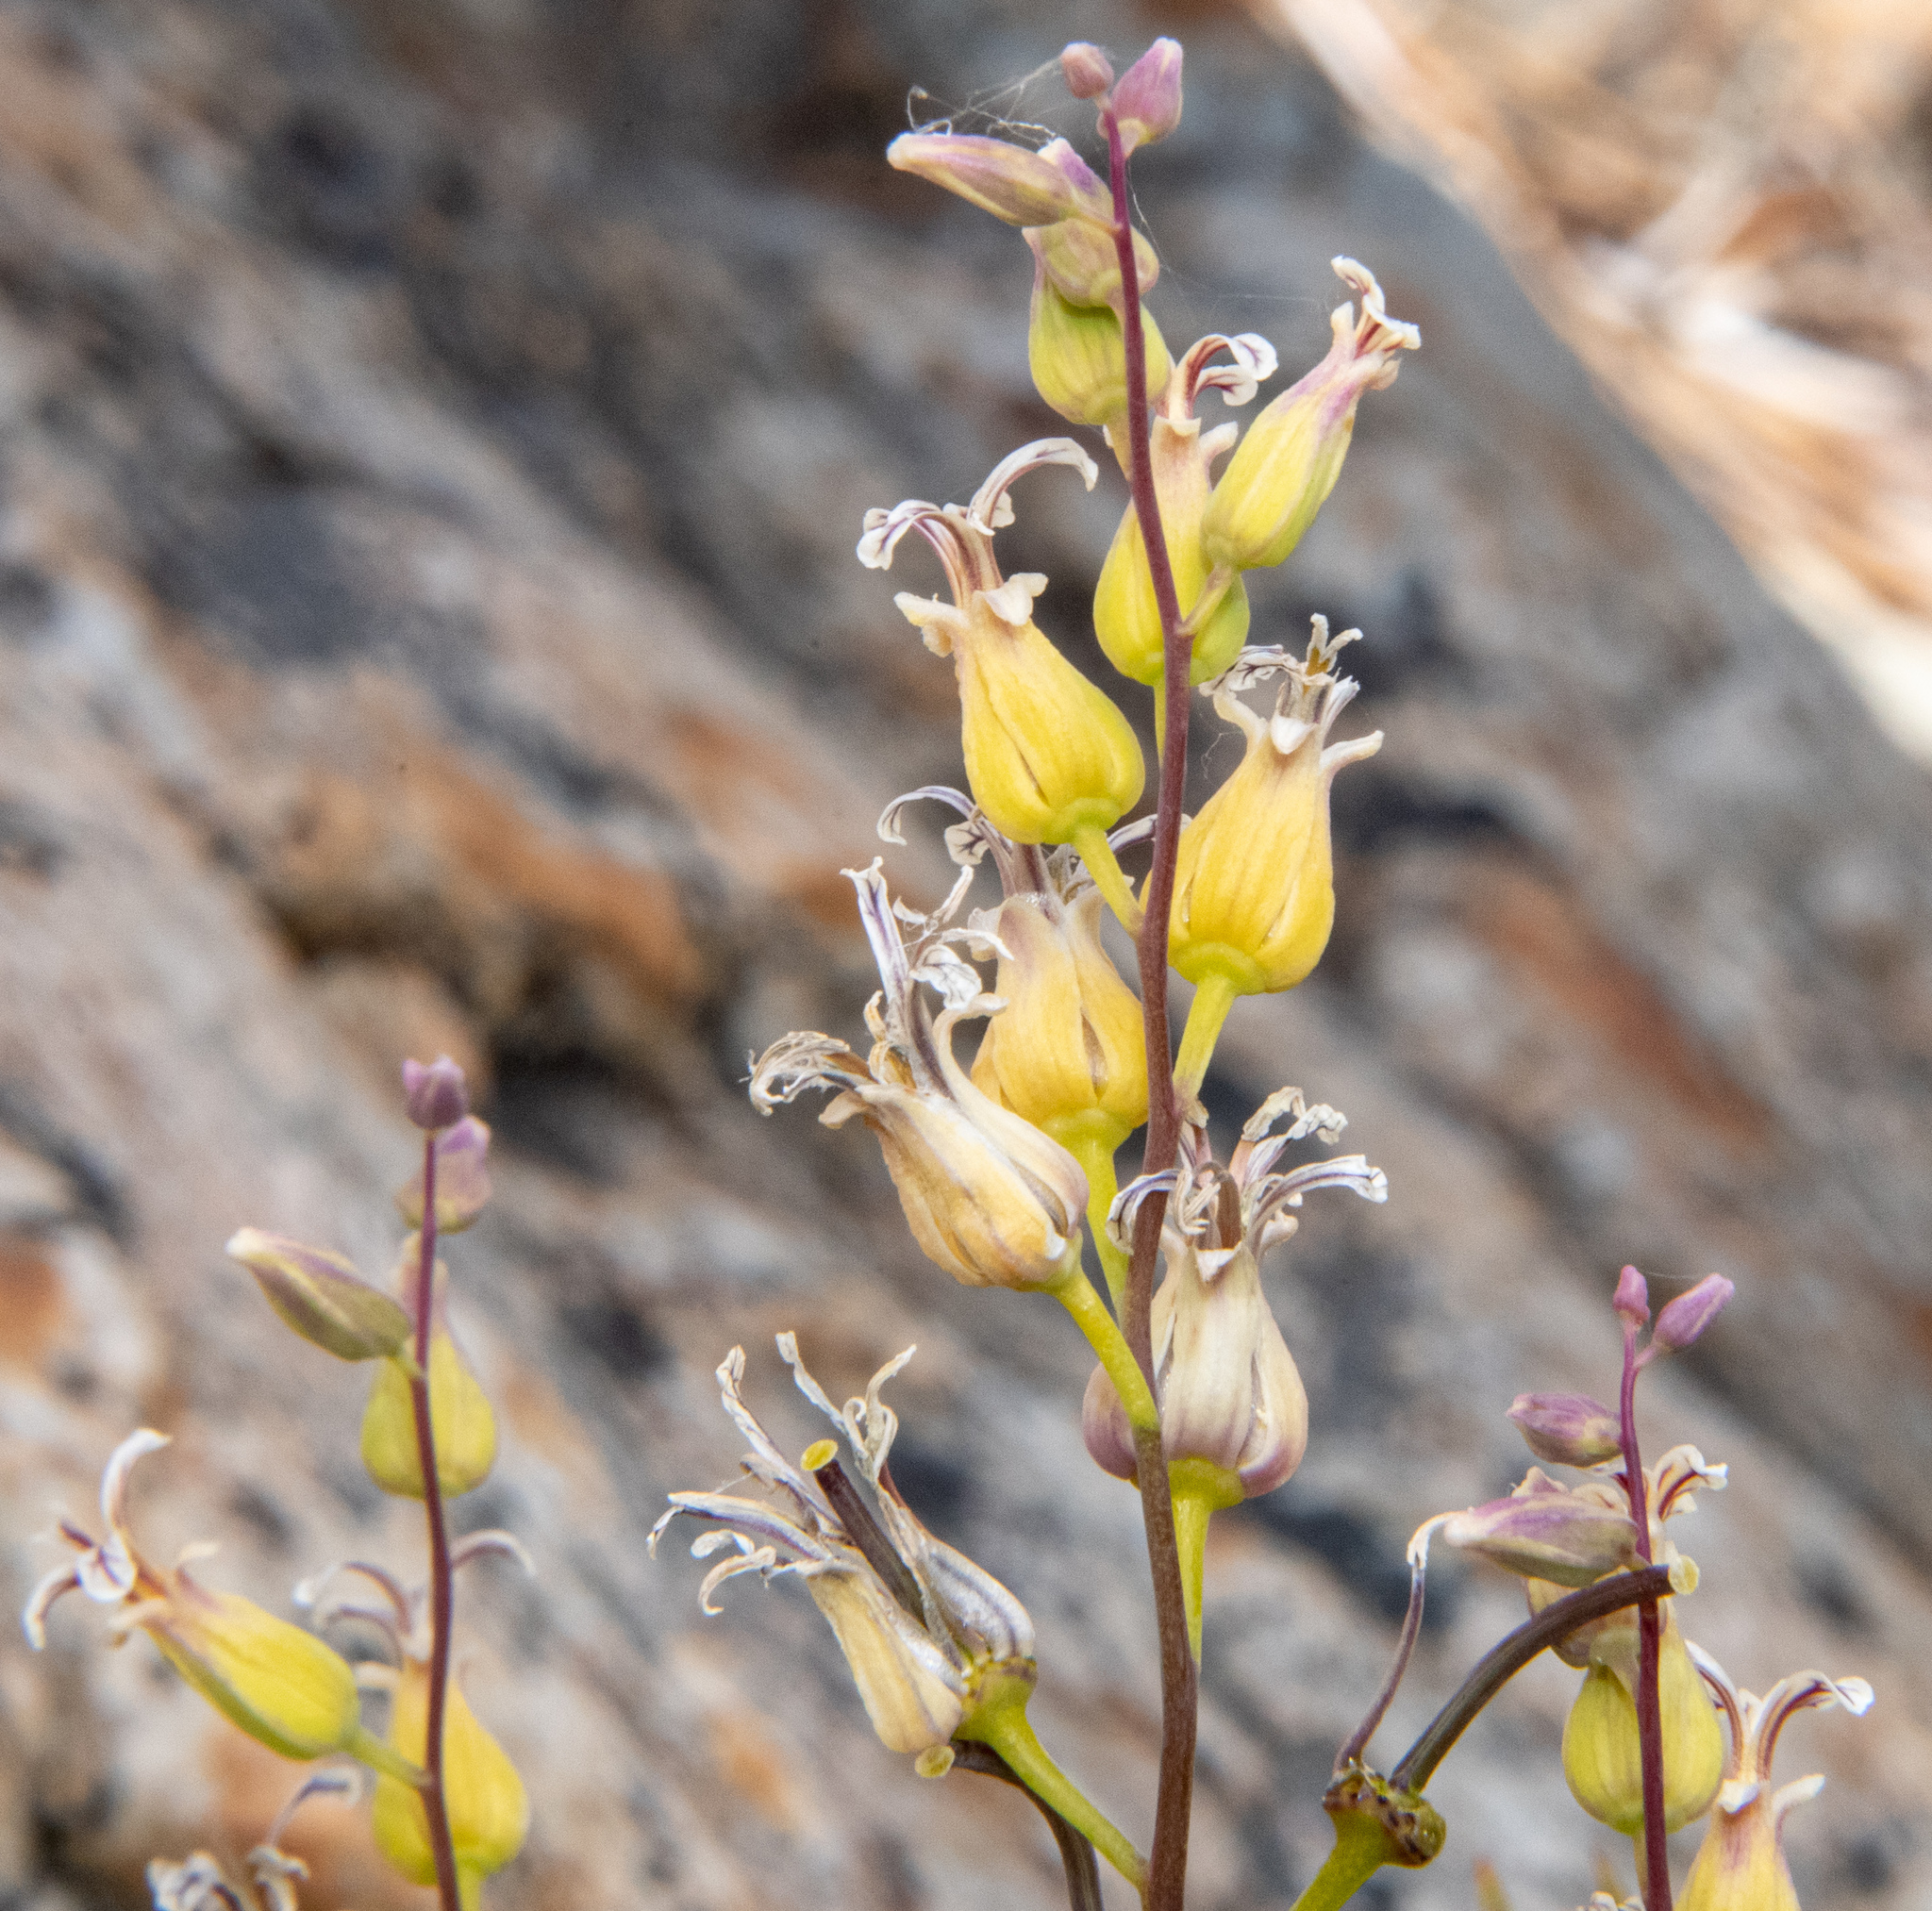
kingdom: Plantae
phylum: Tracheophyta
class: Magnoliopsida
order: Brassicales
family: Brassicaceae
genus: Streptanthus
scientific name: Streptanthus tortuosus
